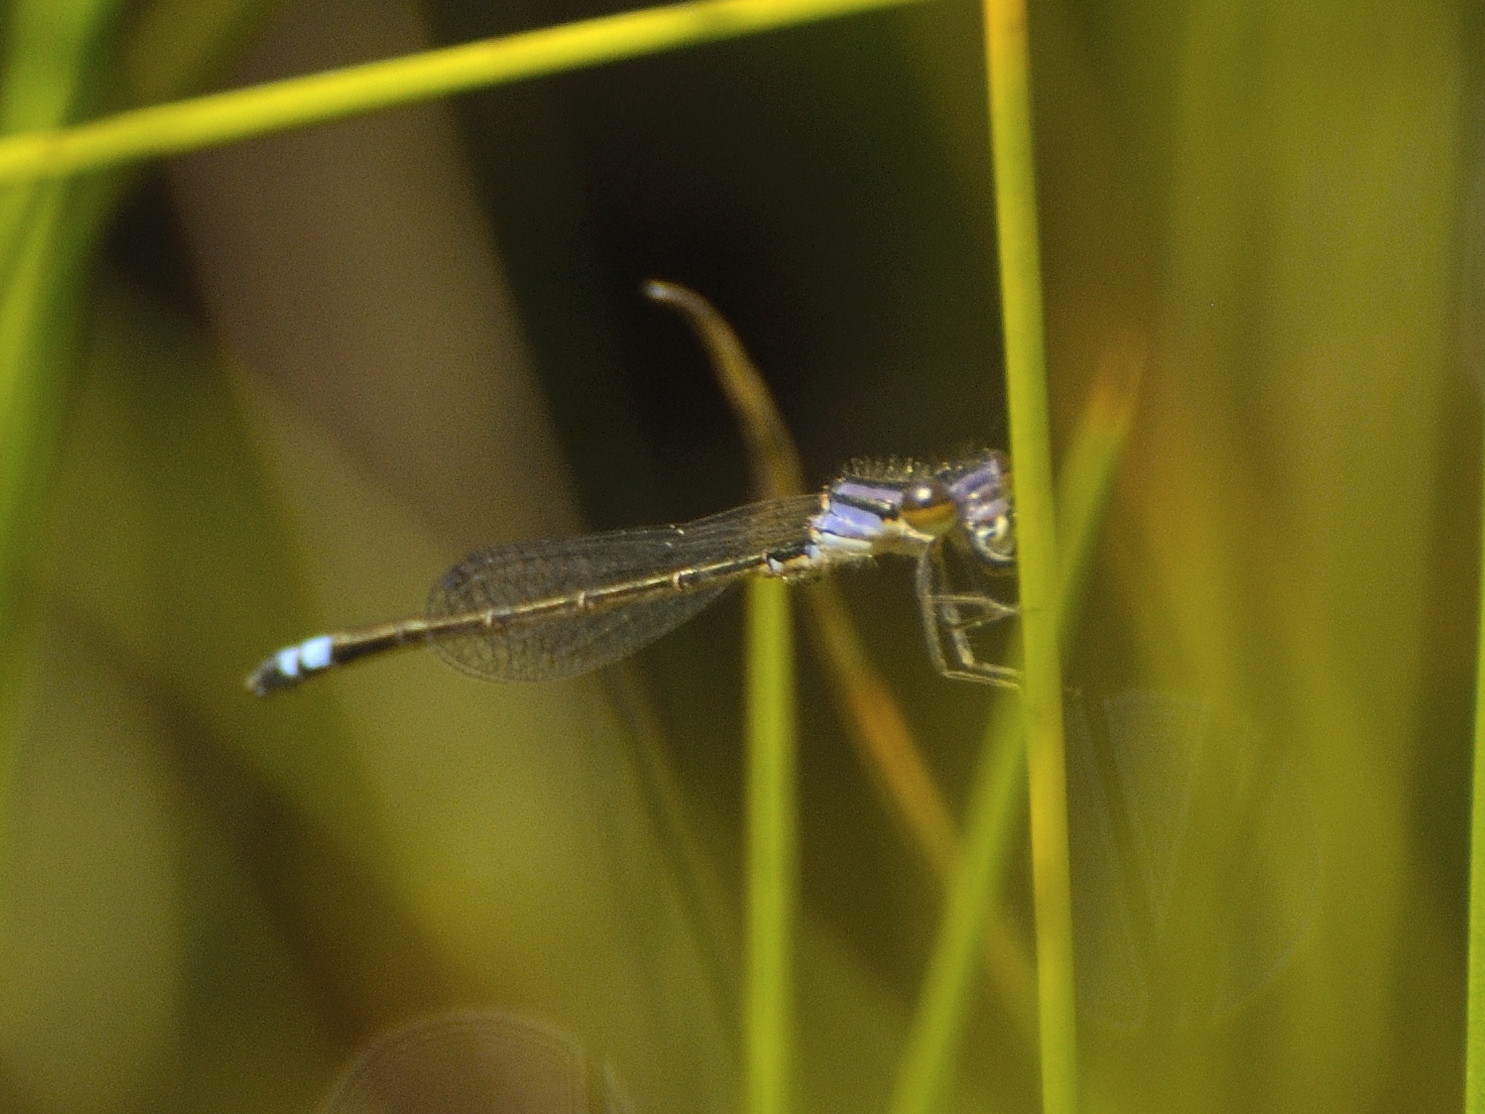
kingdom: Animalia
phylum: Arthropoda
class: Insecta
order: Odonata
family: Coenagrionidae
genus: Proischnura
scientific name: Proischnura polychromatica
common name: Mauve bluet
